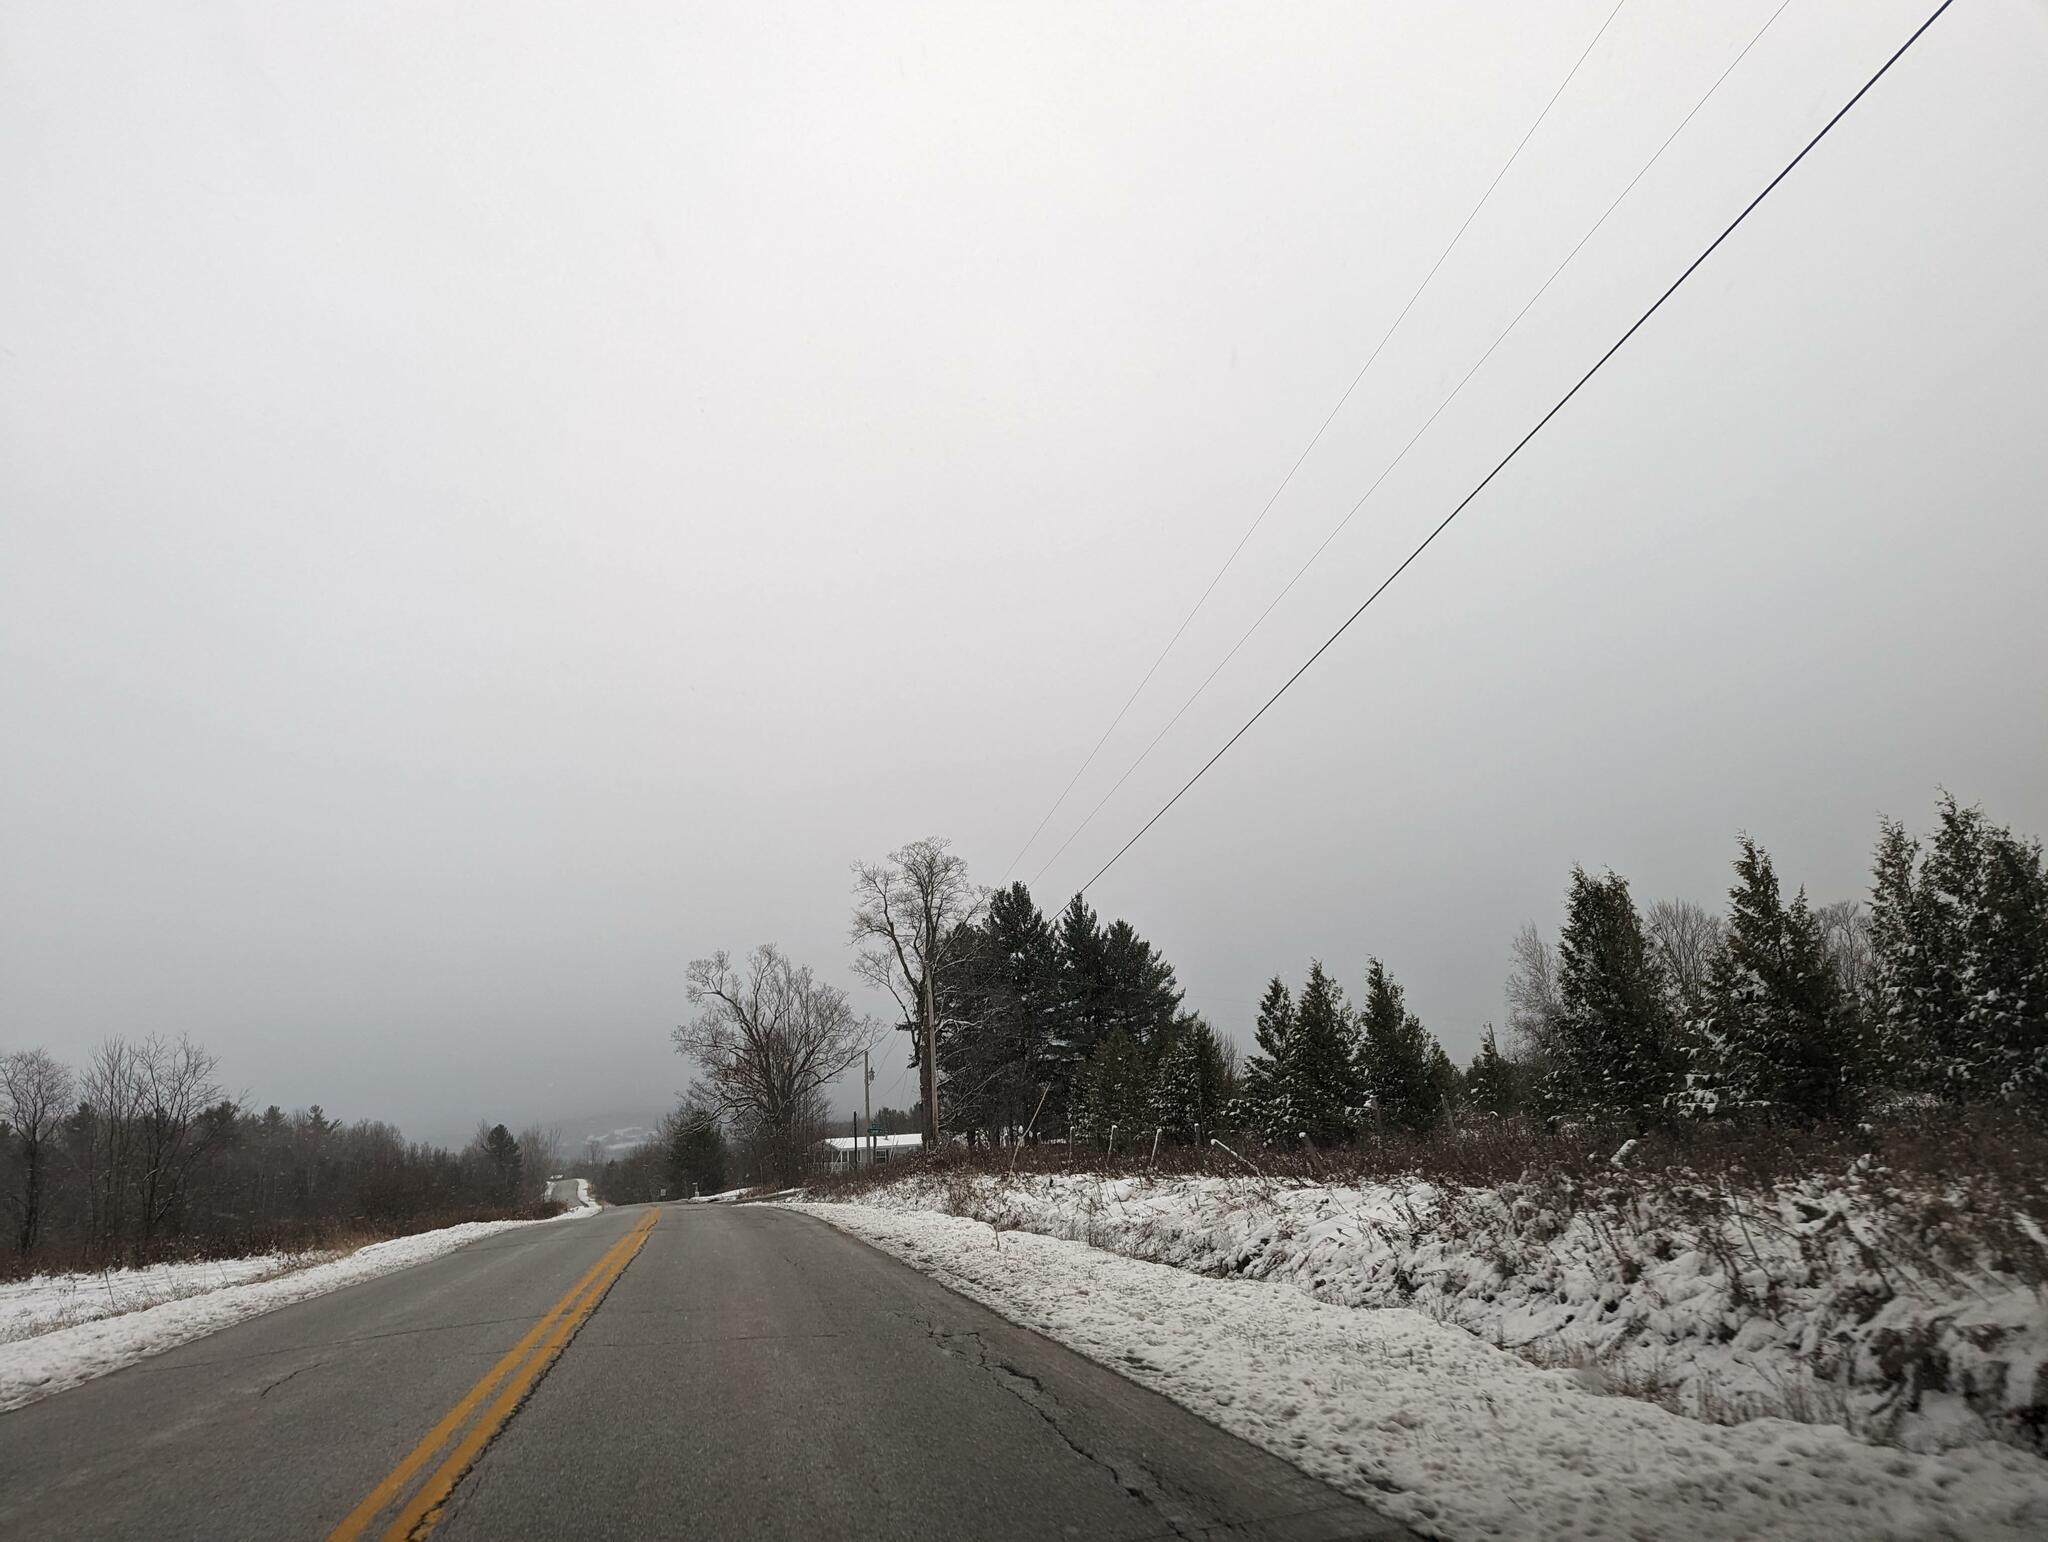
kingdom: Plantae
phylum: Tracheophyta
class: Pinopsida
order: Pinales
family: Pinaceae
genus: Pinus
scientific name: Pinus strobus
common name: Weymouth pine
